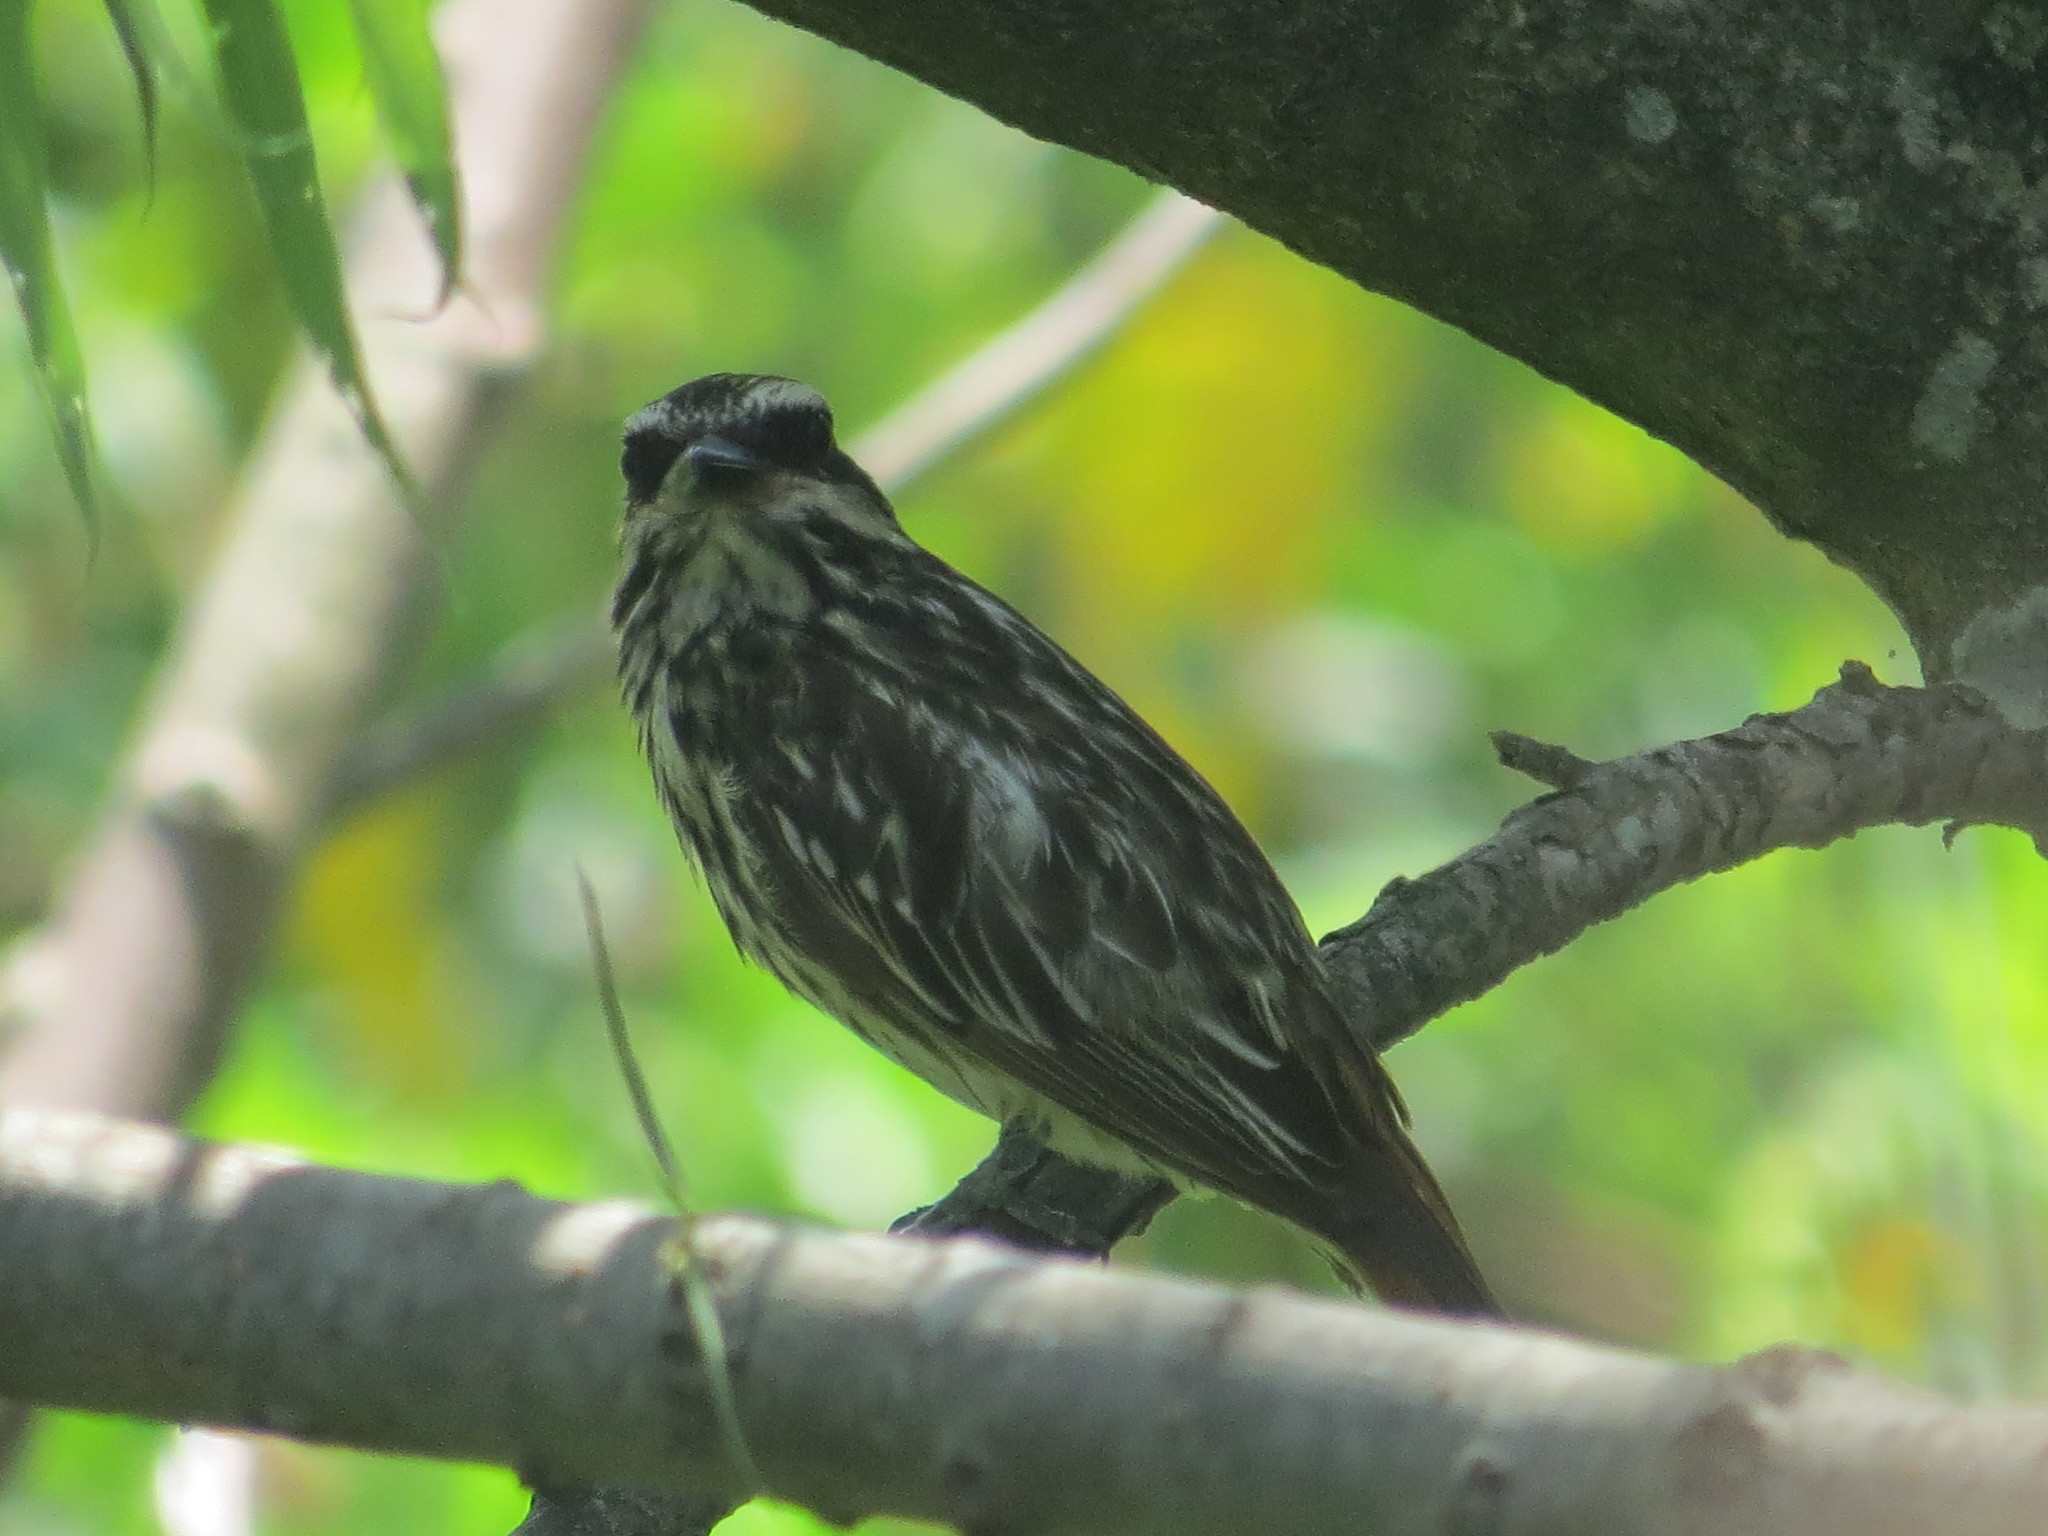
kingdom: Animalia
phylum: Chordata
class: Aves
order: Passeriformes
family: Tyrannidae
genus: Myiodynastes
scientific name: Myiodynastes maculatus
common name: Streaked flycatcher
